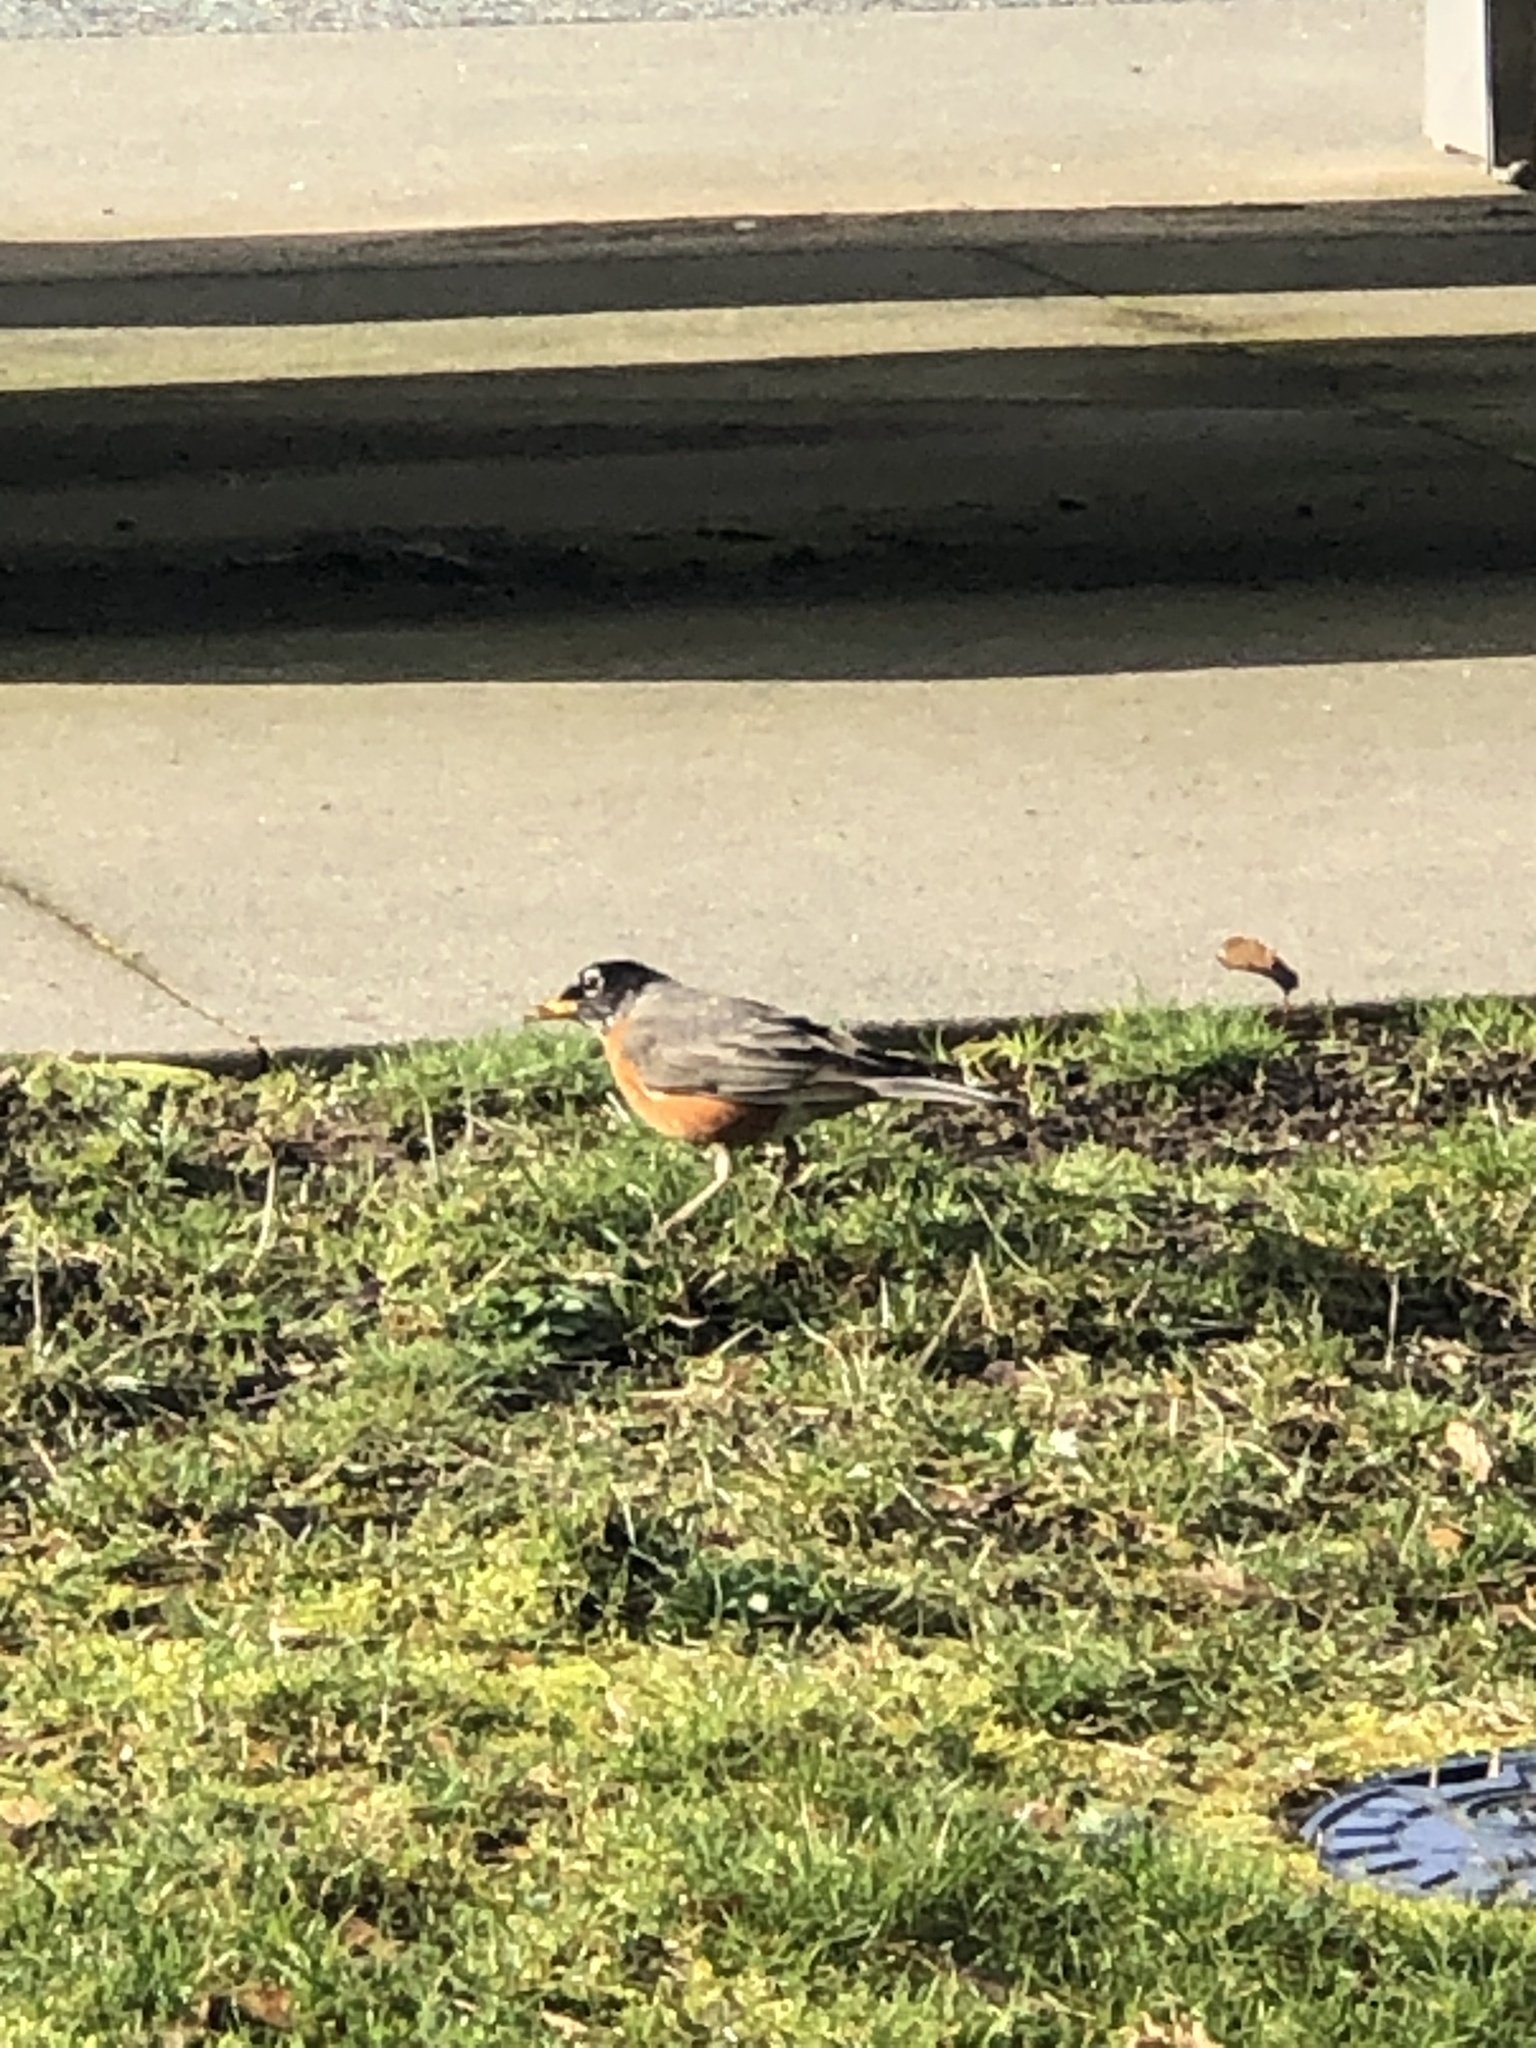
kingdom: Animalia
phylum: Chordata
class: Aves
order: Passeriformes
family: Turdidae
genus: Turdus
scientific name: Turdus migratorius
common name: American robin
